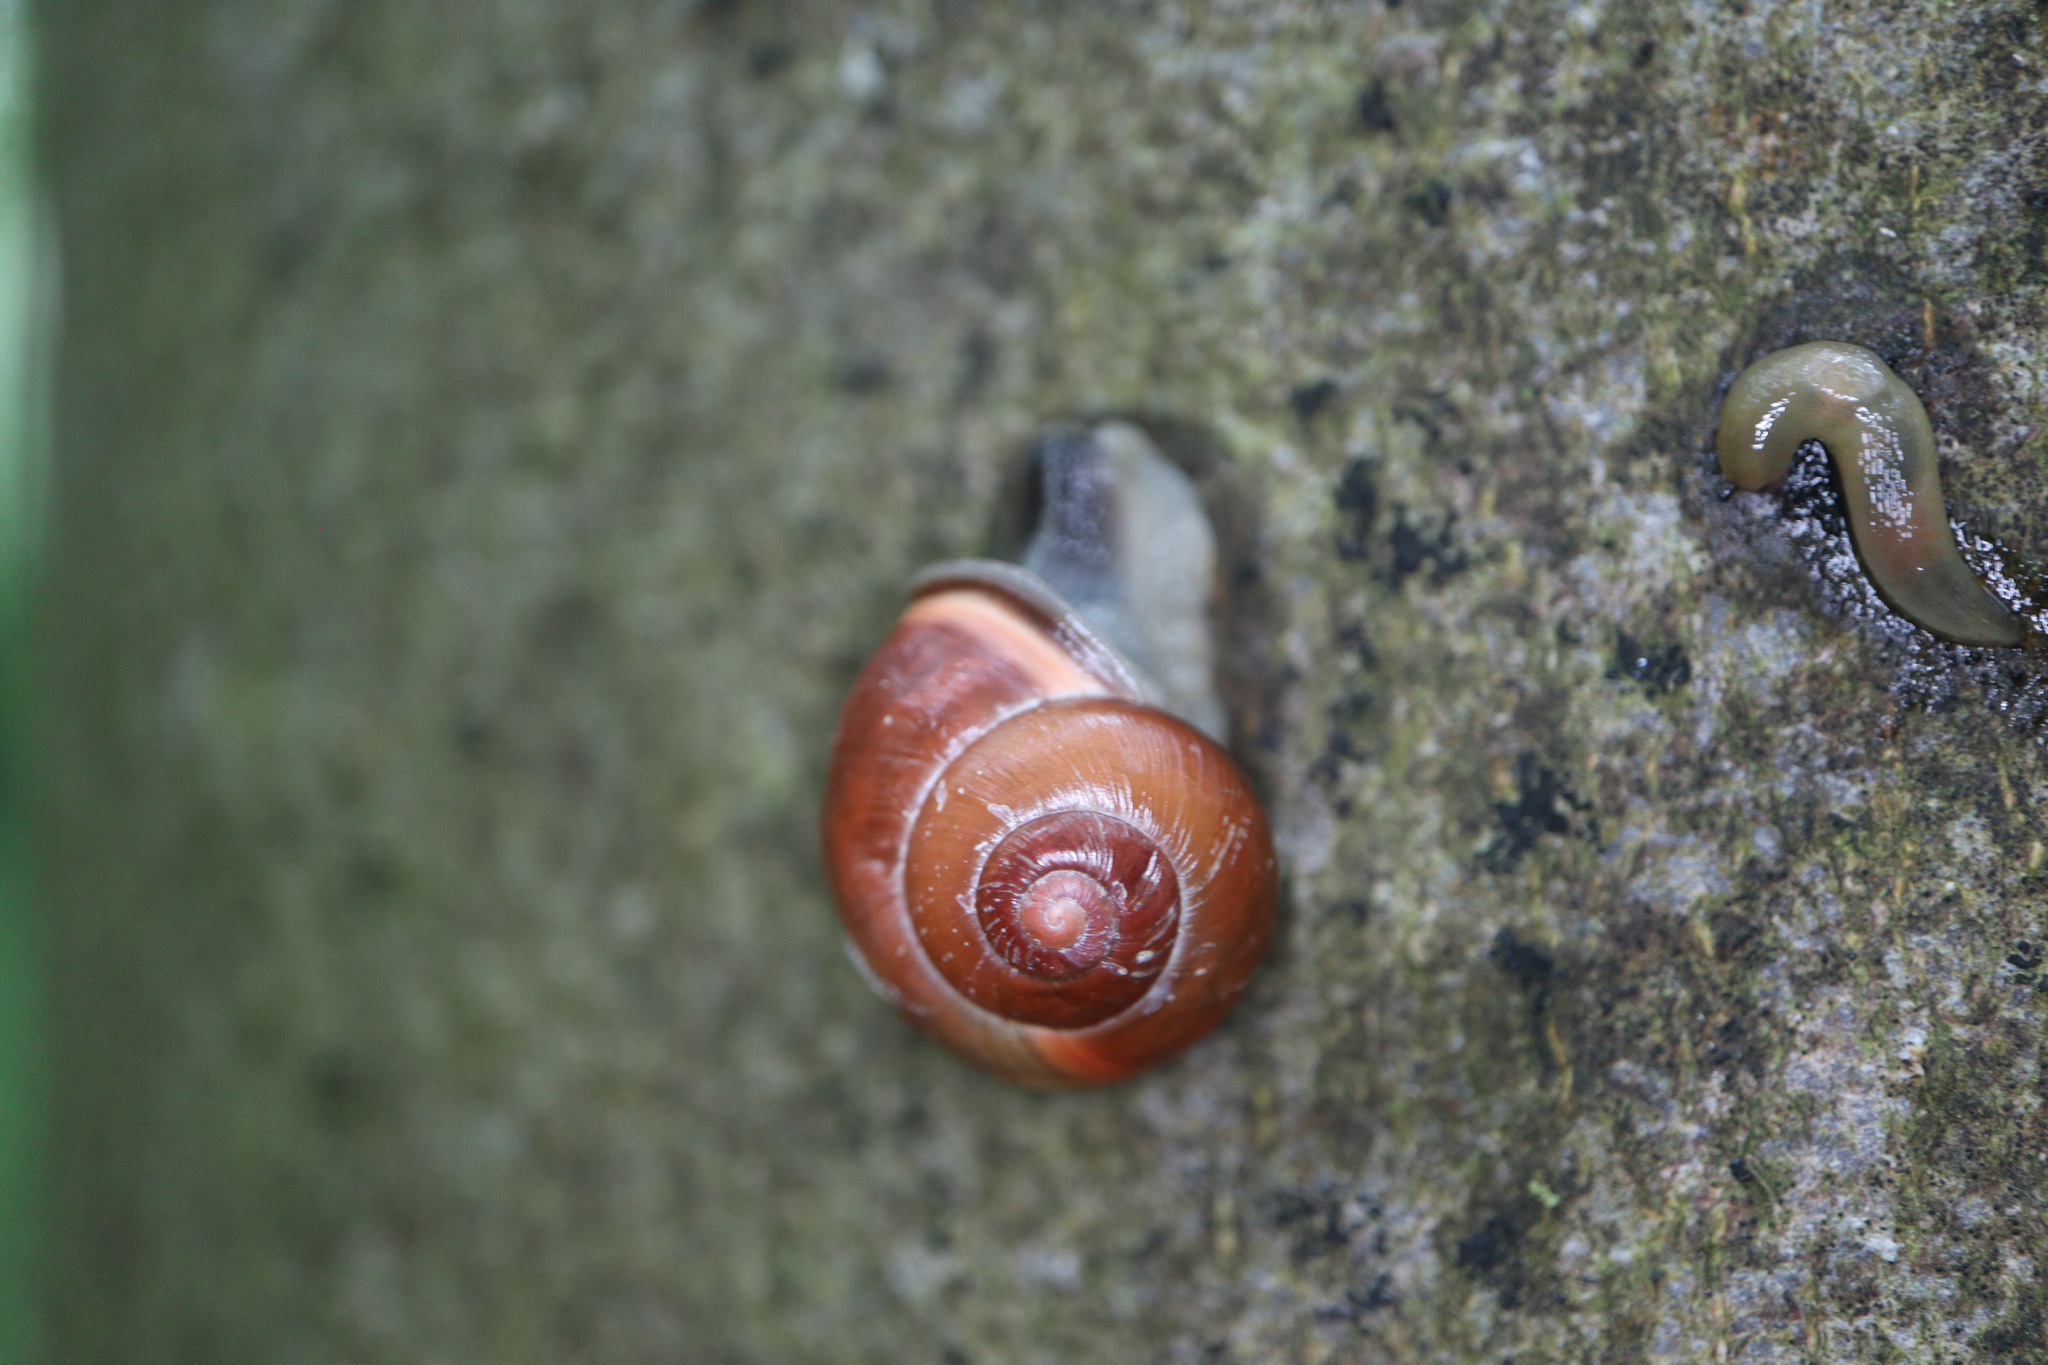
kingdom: Animalia
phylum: Mollusca
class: Gastropoda
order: Stylommatophora
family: Helicidae
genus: Cepaea
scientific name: Cepaea nemoralis
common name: Grovesnail
